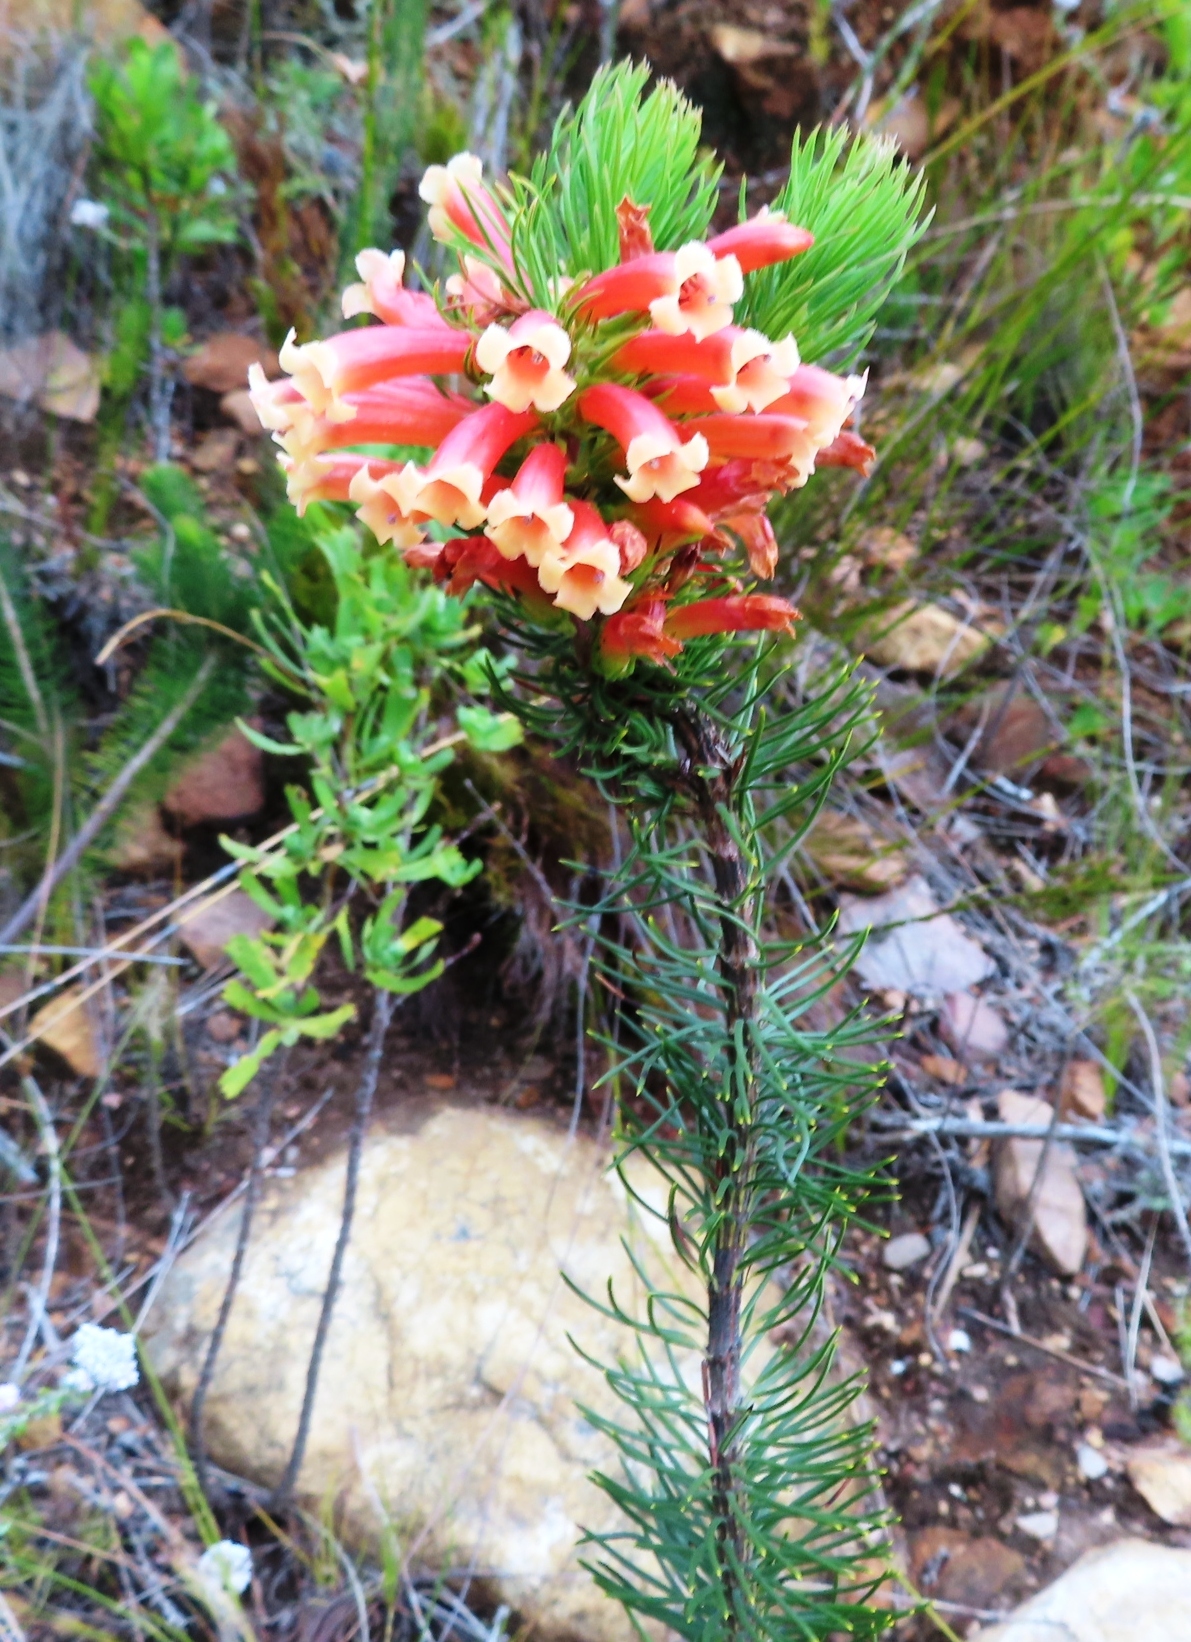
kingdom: Plantae
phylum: Tracheophyta
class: Magnoliopsida
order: Ericales
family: Ericaceae
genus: Erica
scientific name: Erica viscaria
